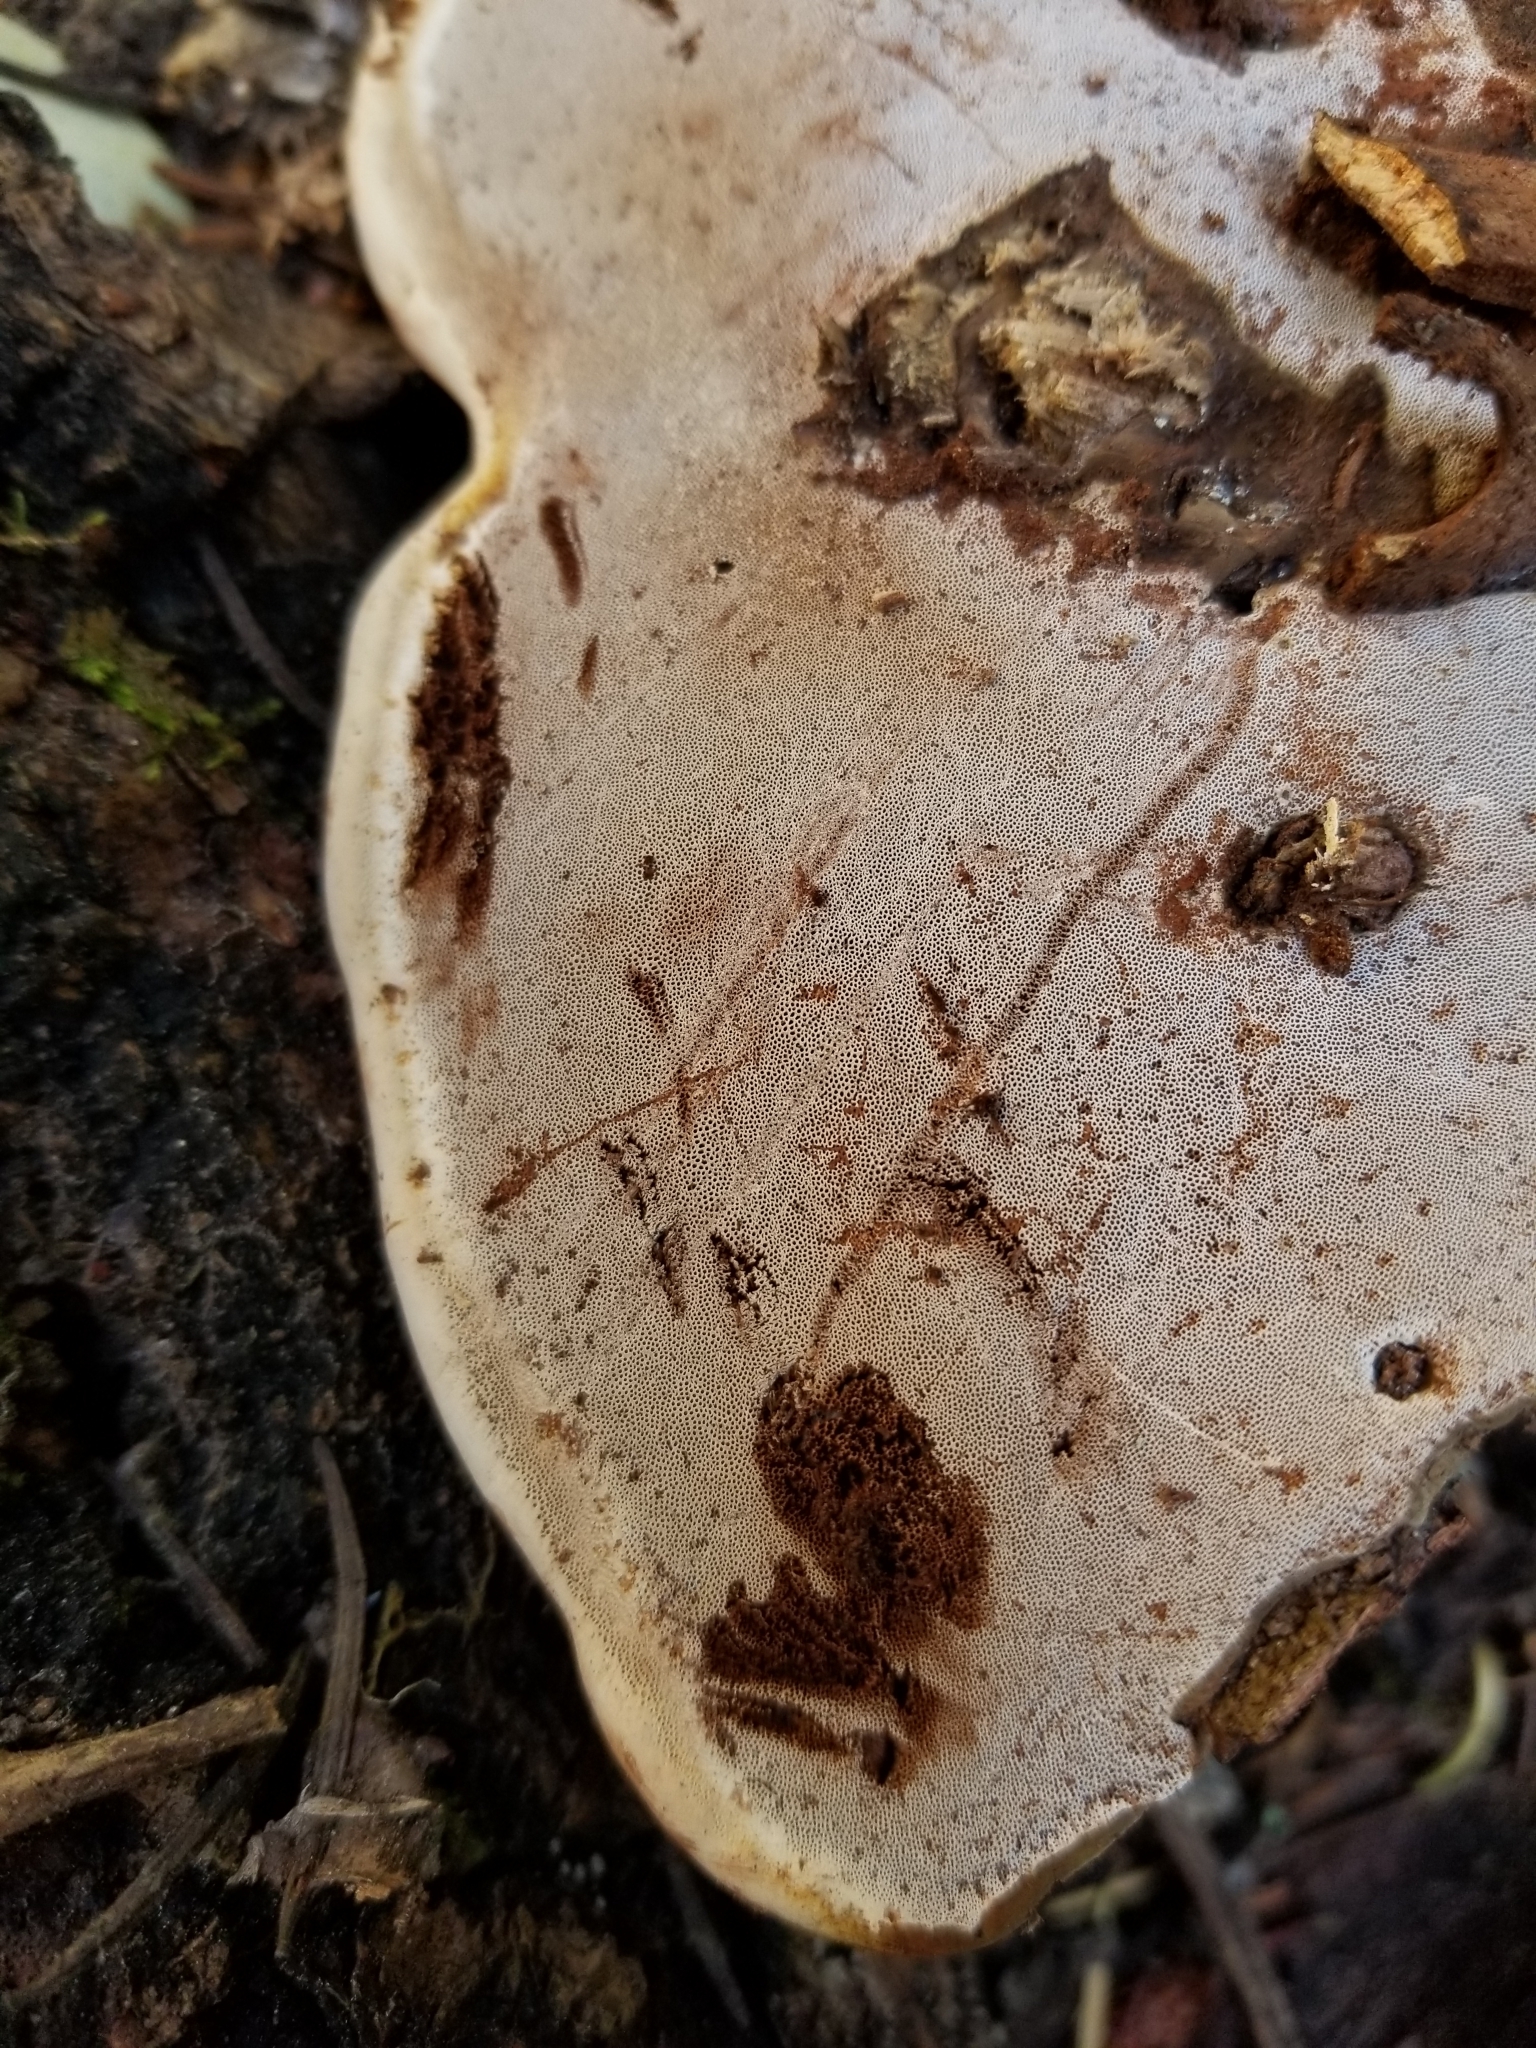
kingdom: Fungi
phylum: Basidiomycota
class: Agaricomycetes
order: Polyporales
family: Polyporaceae
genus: Ganoderma
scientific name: Ganoderma applanatum
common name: Artist's bracket
